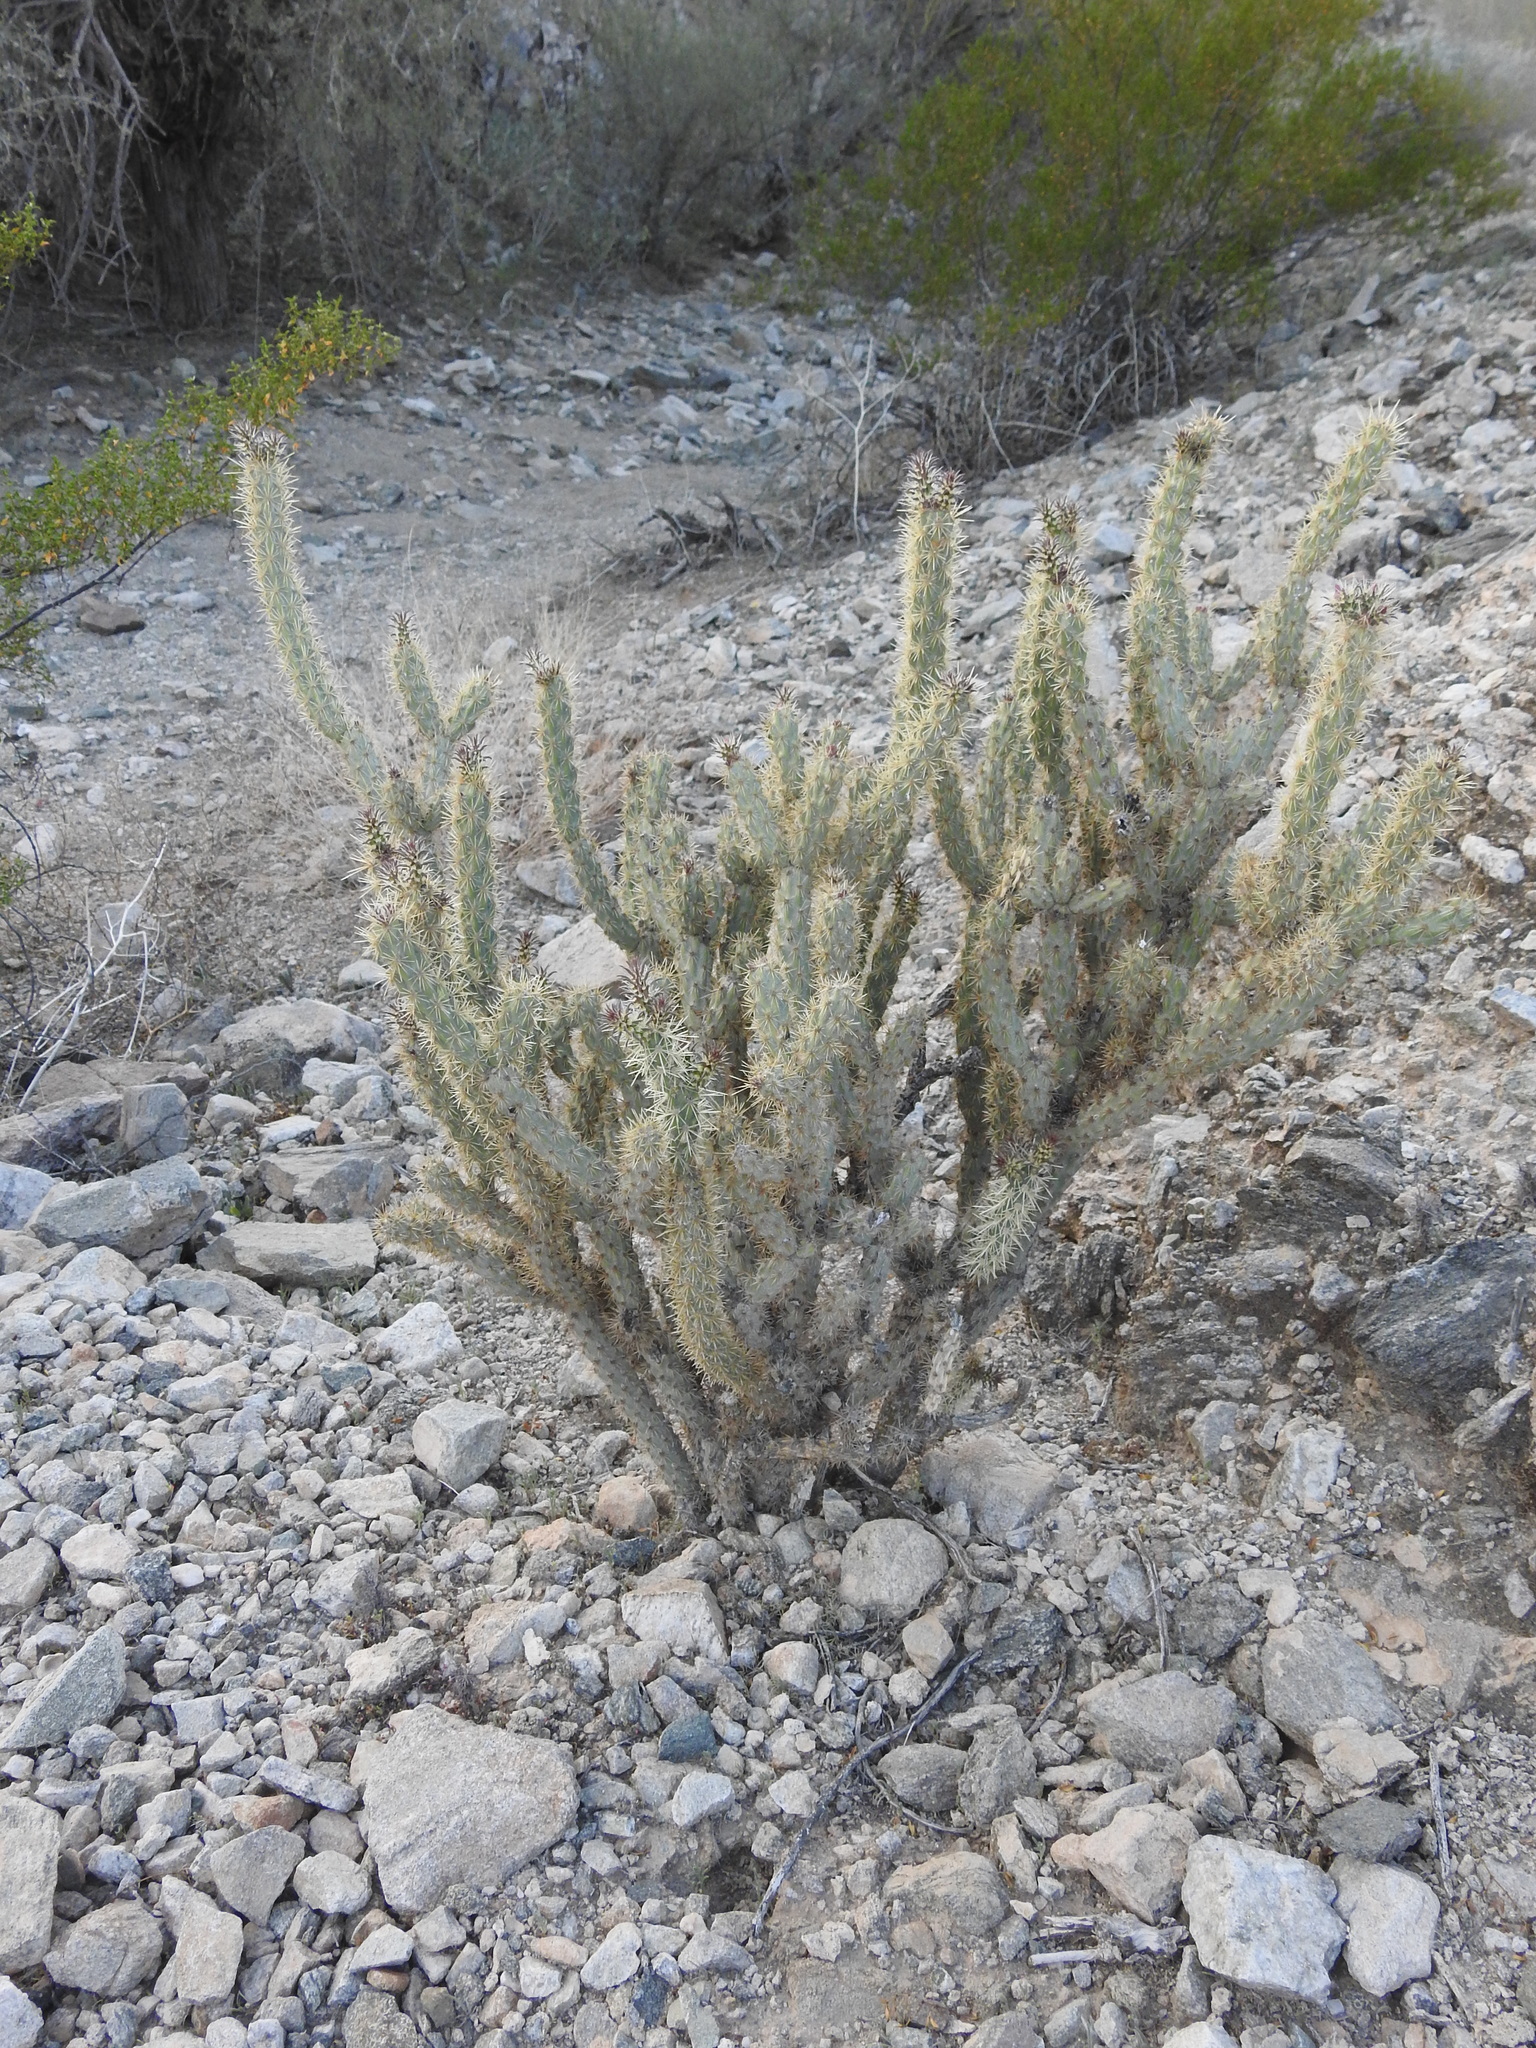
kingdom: Plantae
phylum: Tracheophyta
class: Magnoliopsida
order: Caryophyllales
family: Cactaceae
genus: Cylindropuntia
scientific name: Cylindropuntia acanthocarpa
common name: Buckhorn cholla
